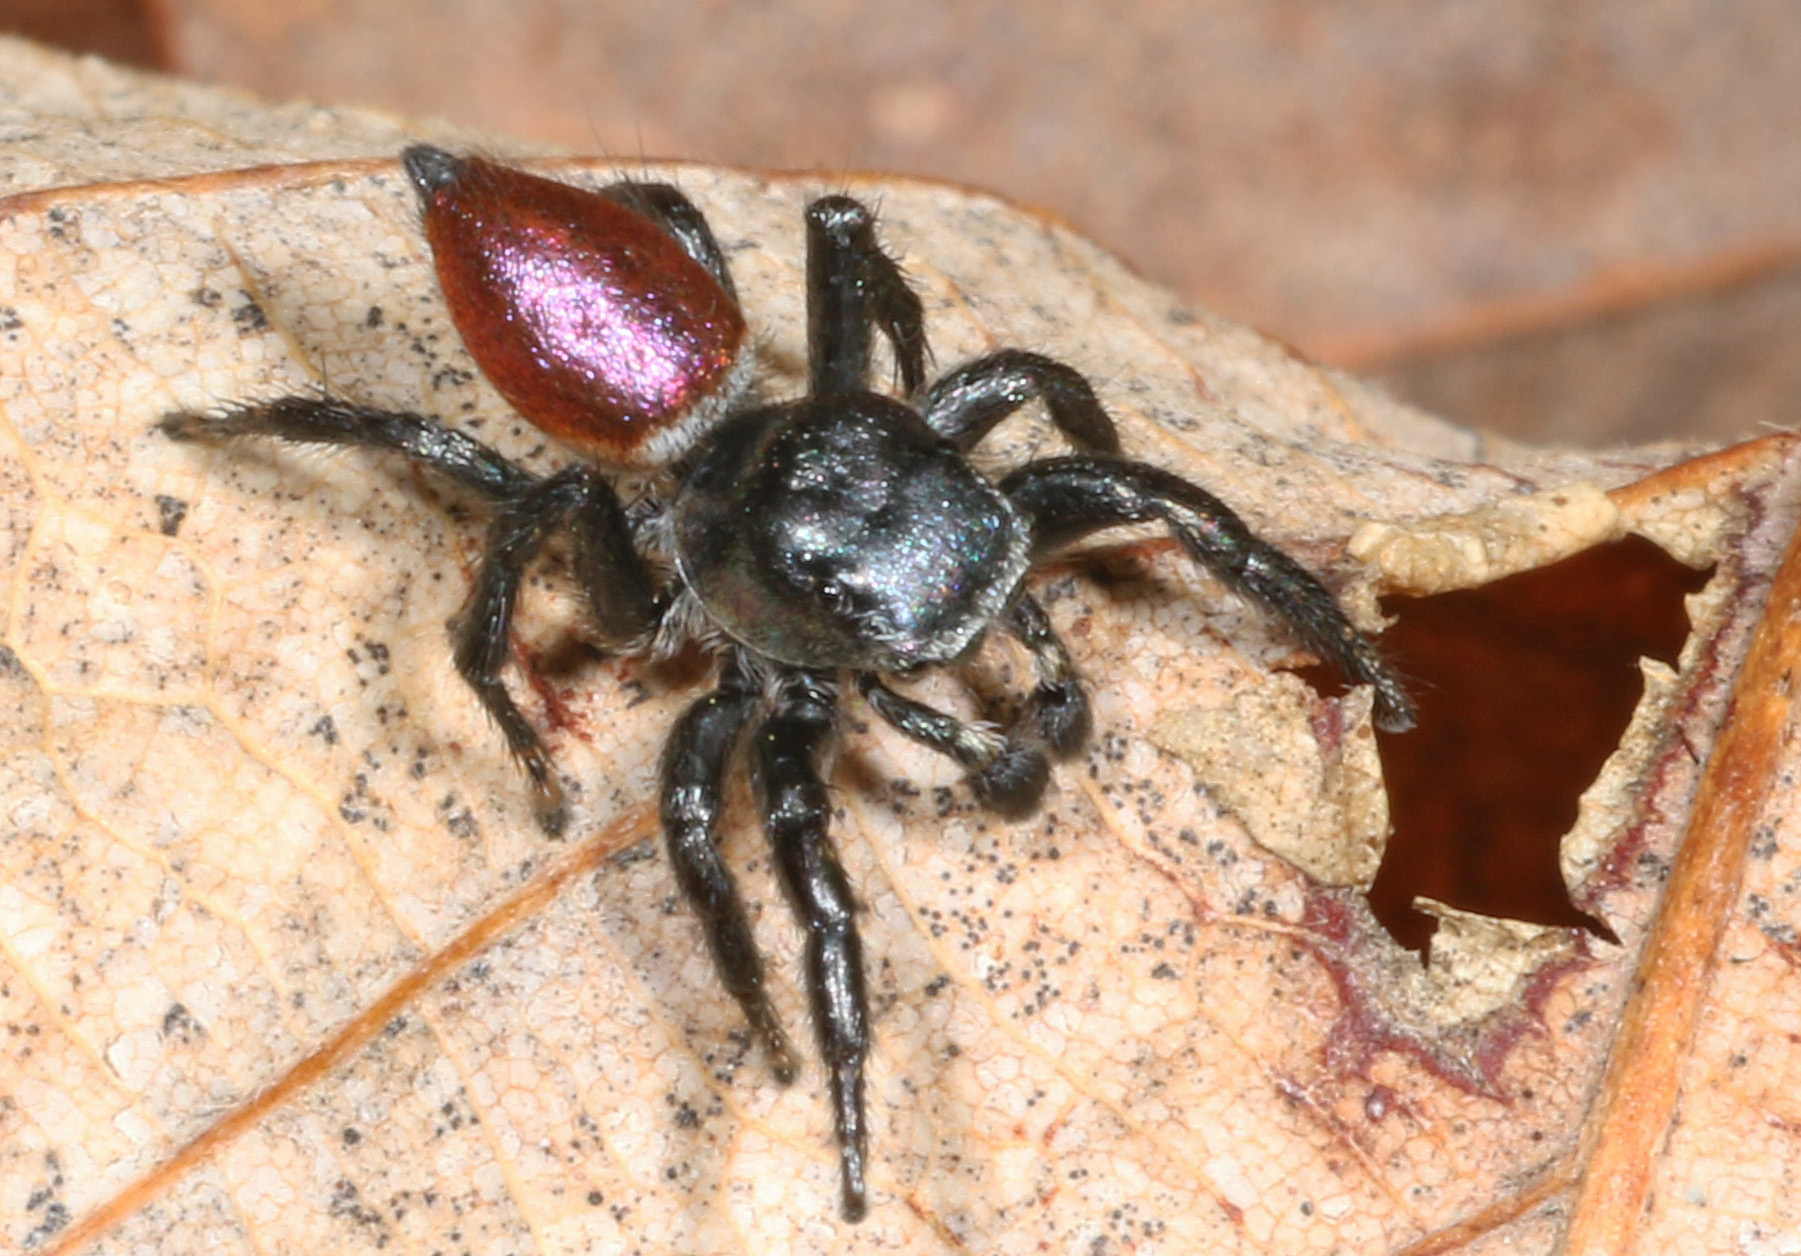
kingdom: Animalia
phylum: Arthropoda
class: Arachnida
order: Araneae
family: Salticidae
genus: Habronattus
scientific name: Habronattus decorus
